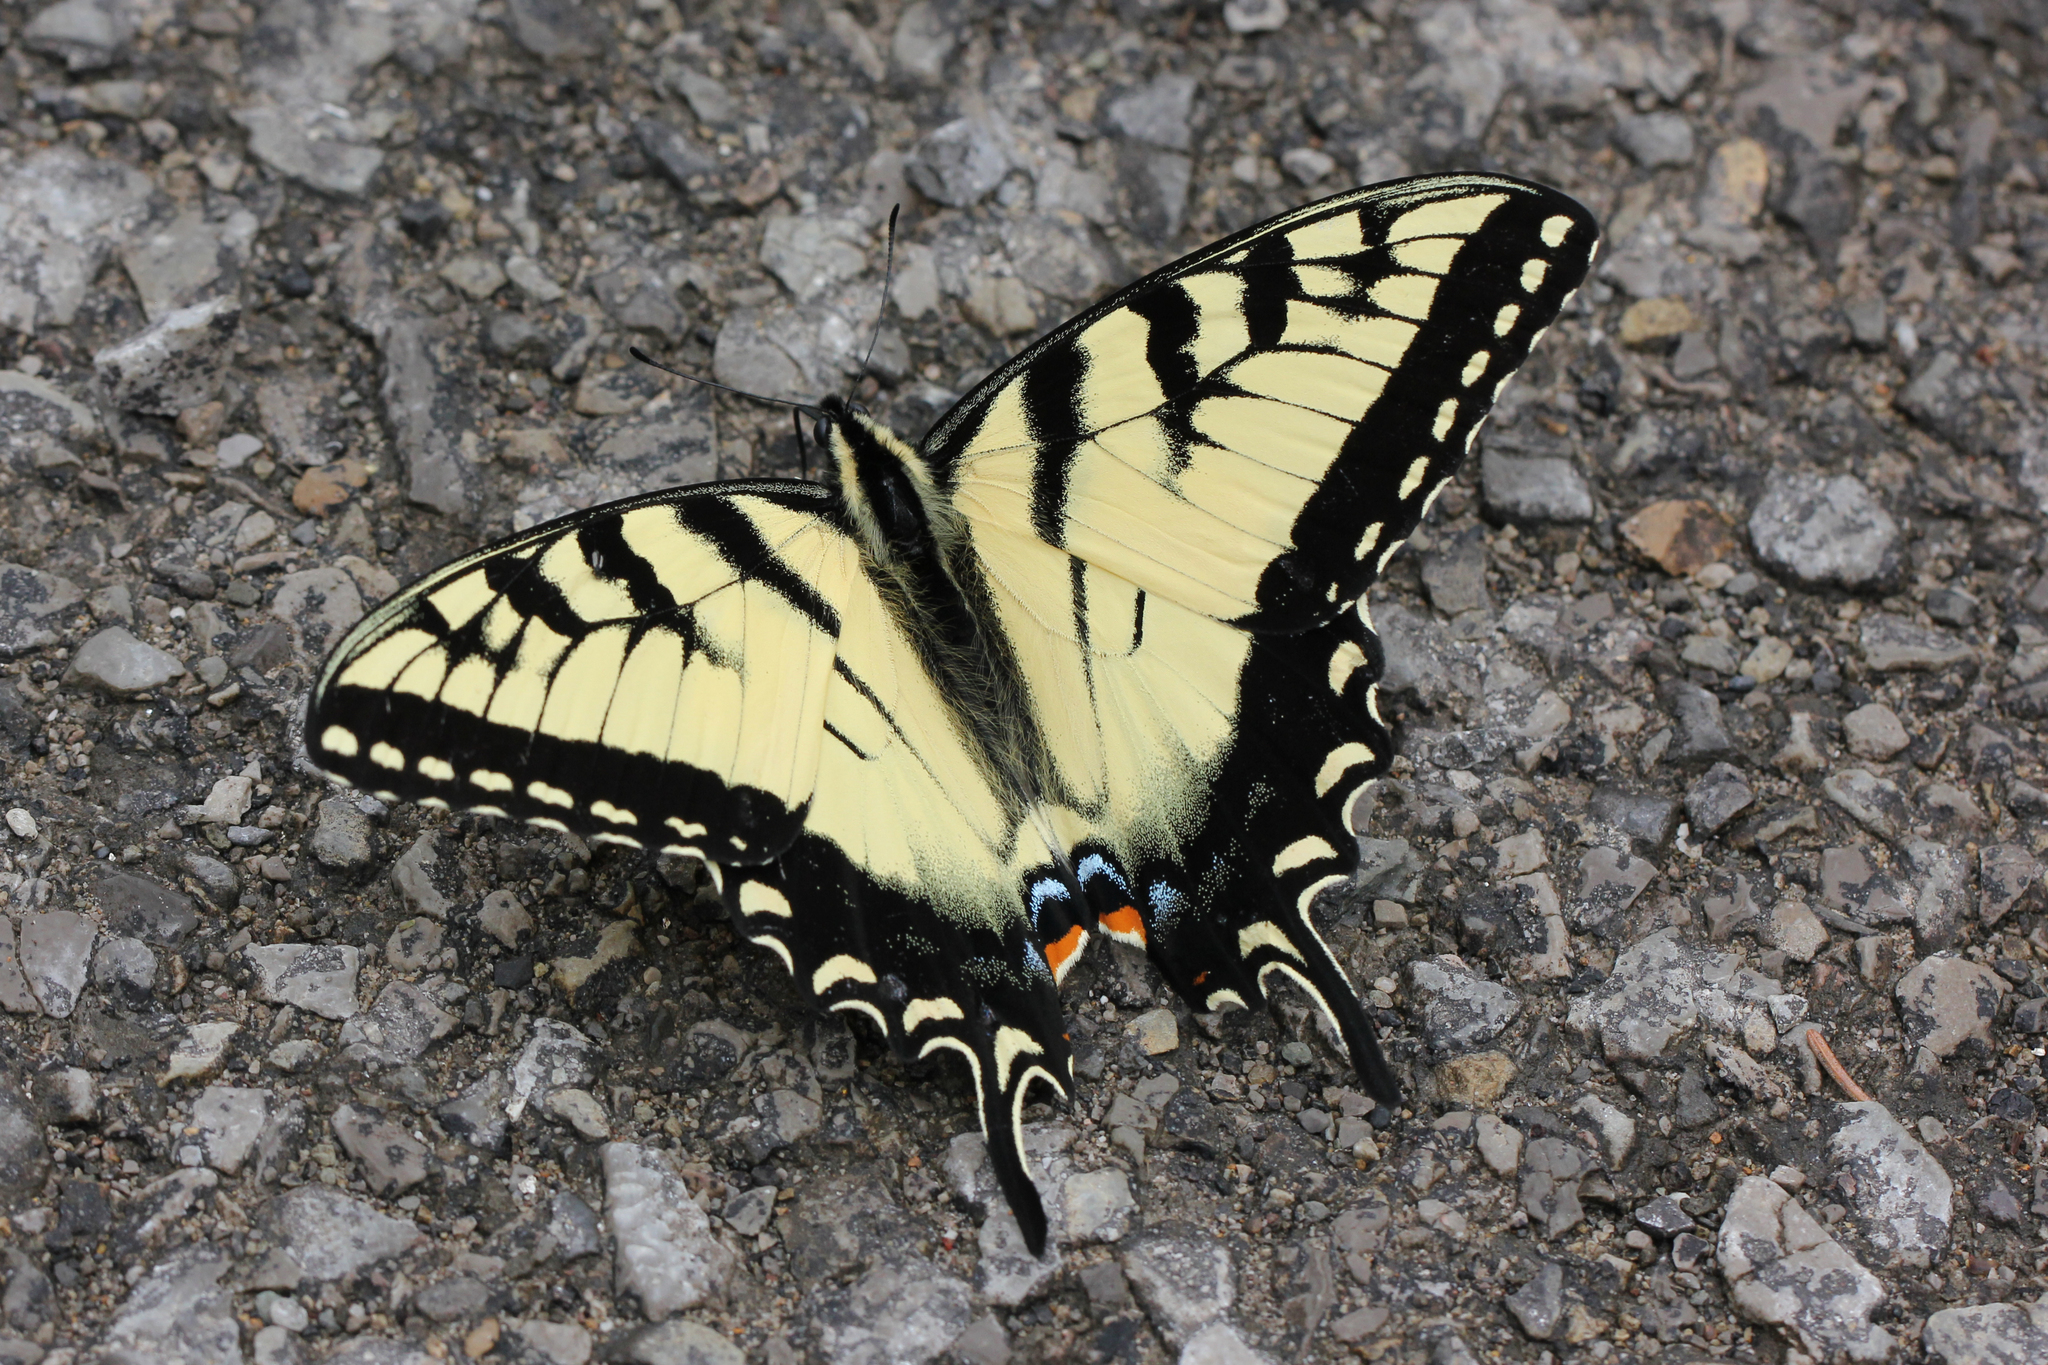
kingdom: Animalia
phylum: Arthropoda
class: Insecta
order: Lepidoptera
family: Papilionidae
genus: Papilio
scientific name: Papilio glaucus
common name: Tiger swallowtail
